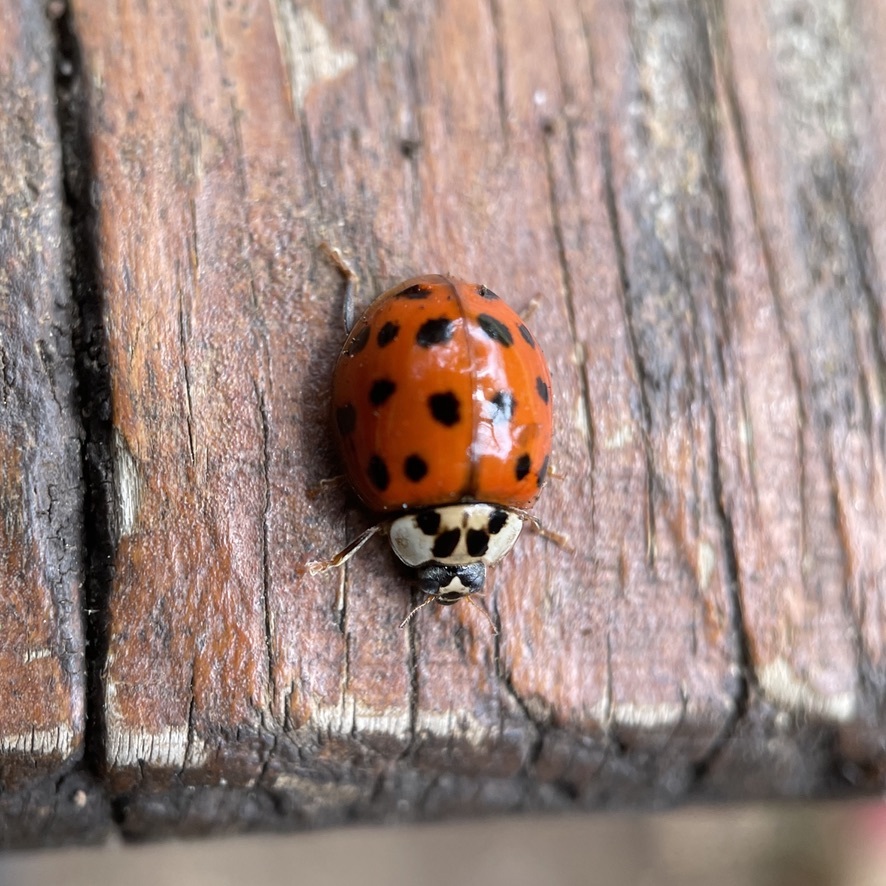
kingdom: Animalia
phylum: Arthropoda
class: Insecta
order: Coleoptera
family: Coccinellidae
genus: Harmonia
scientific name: Harmonia axyridis
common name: Harlequin ladybird
